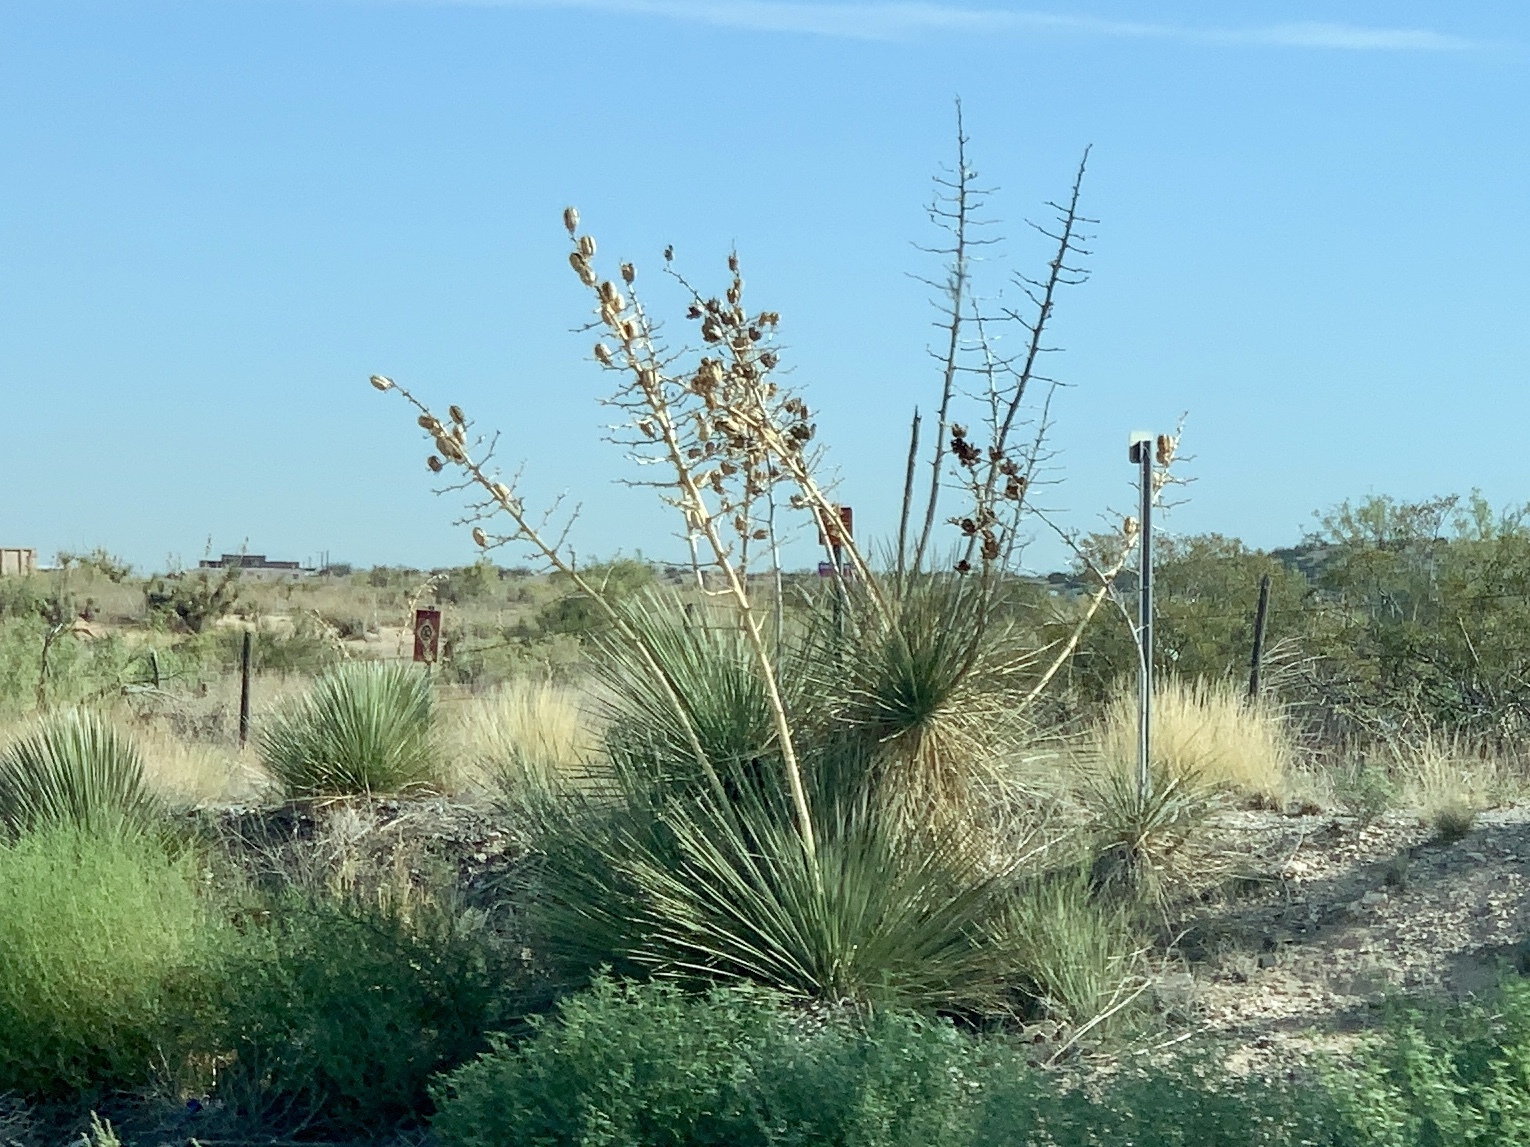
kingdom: Plantae
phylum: Tracheophyta
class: Liliopsida
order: Asparagales
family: Asparagaceae
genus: Yucca
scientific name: Yucca elata
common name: Palmella
